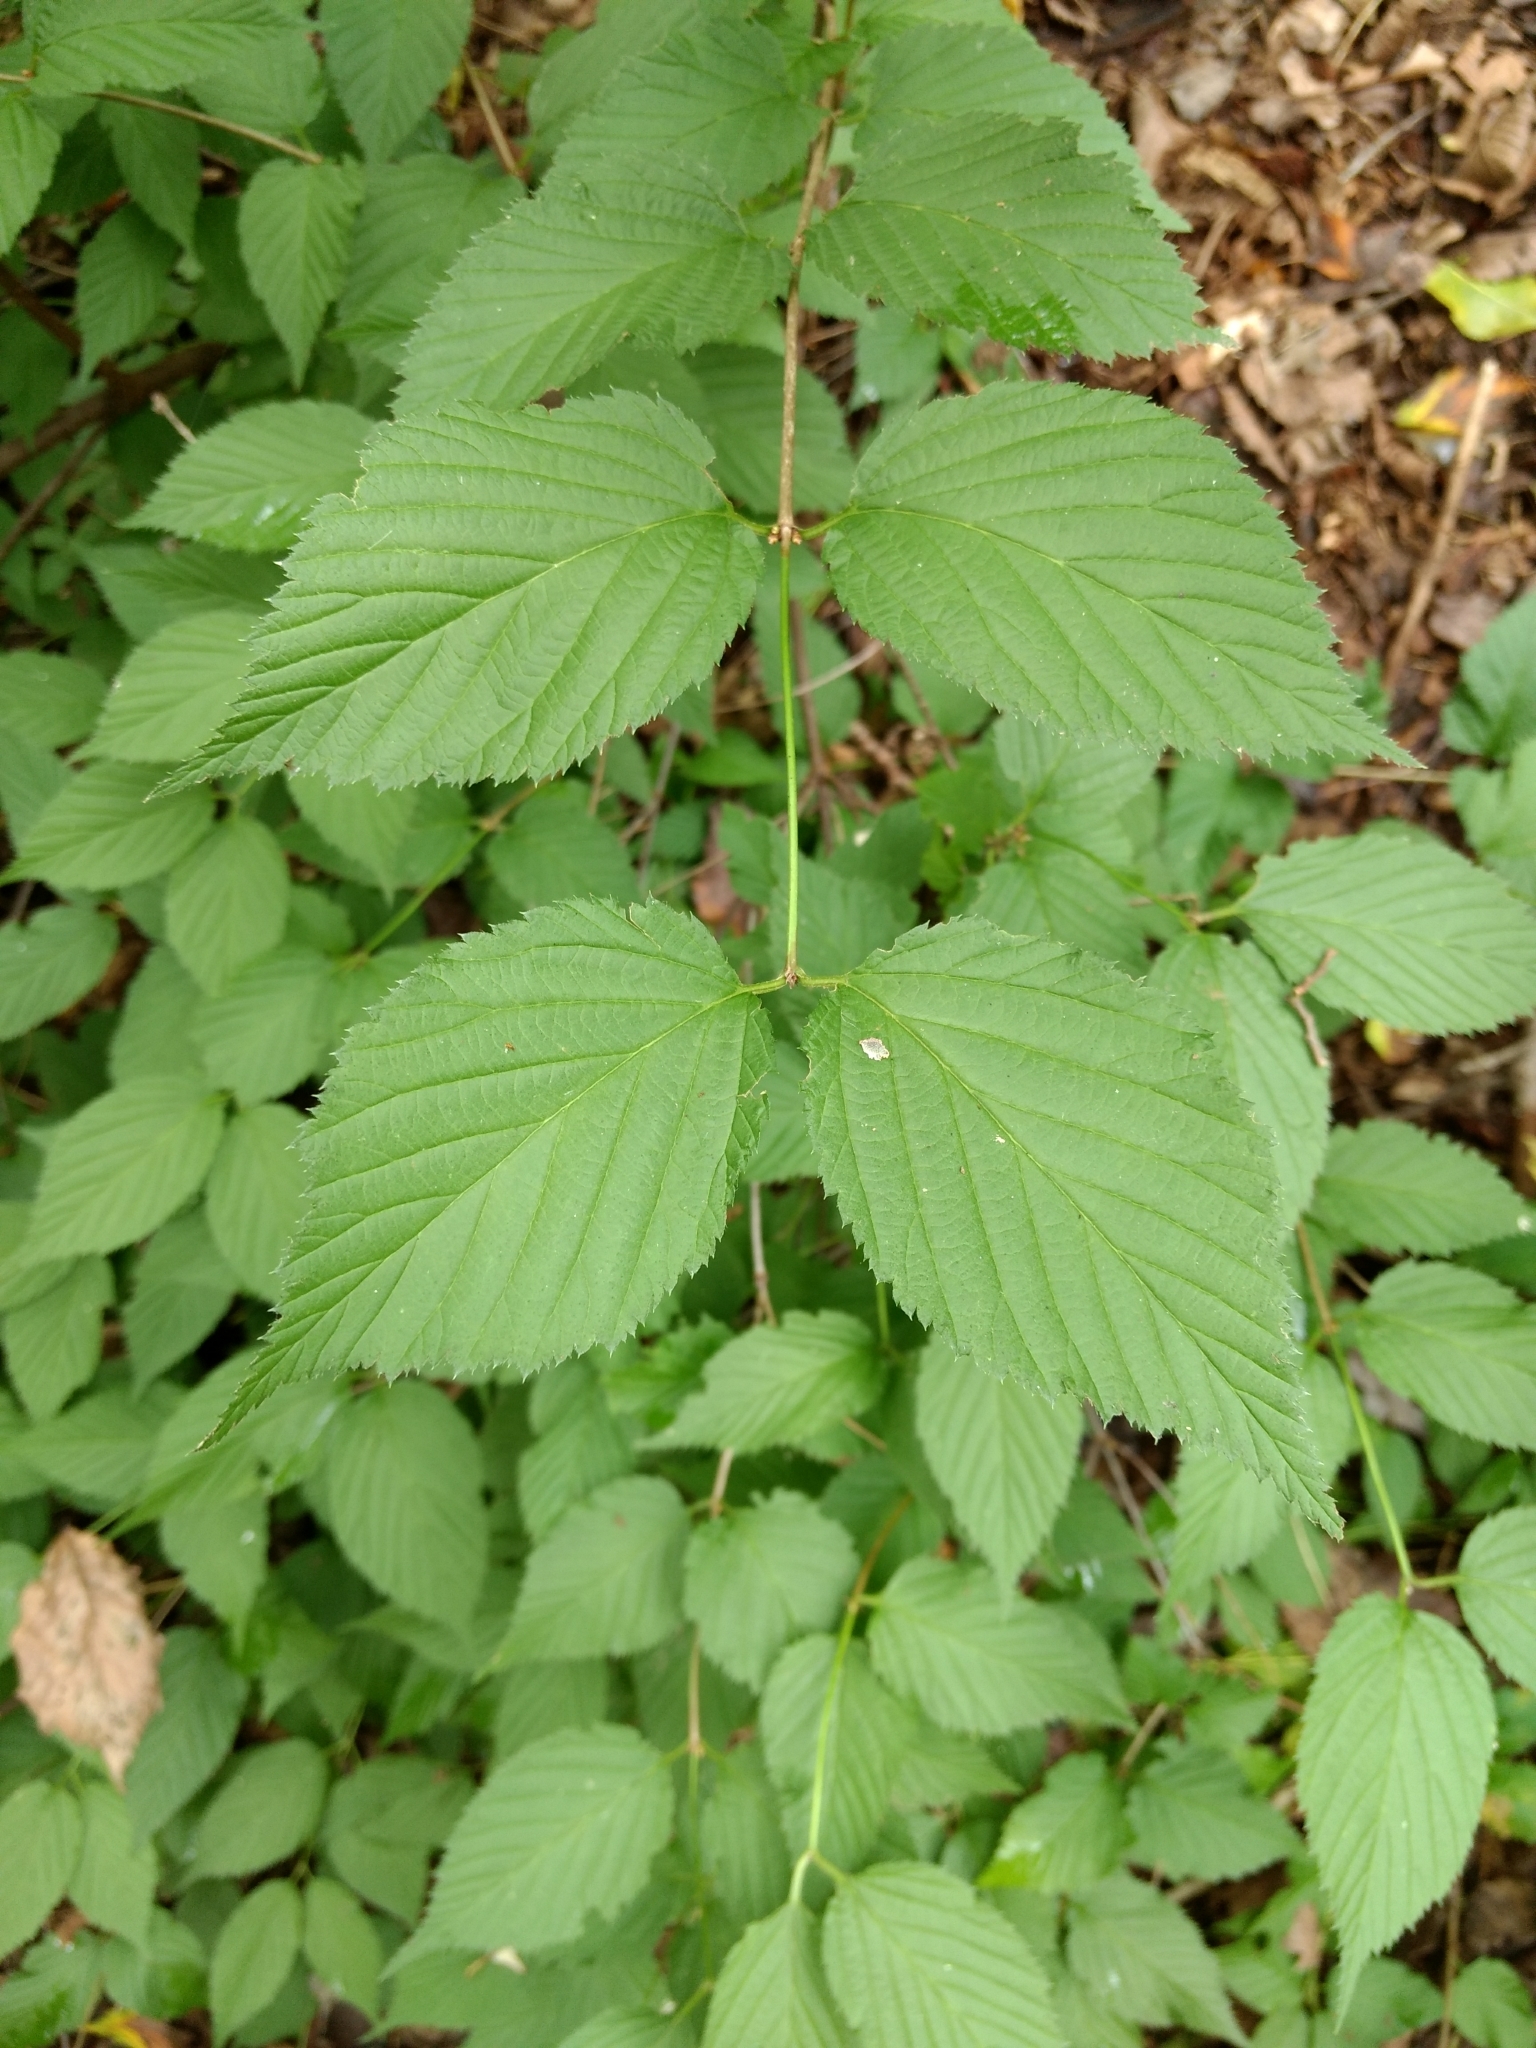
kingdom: Plantae
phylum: Tracheophyta
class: Magnoliopsida
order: Rosales
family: Rosaceae
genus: Rhodotypos
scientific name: Rhodotypos scandens
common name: Jetbead
